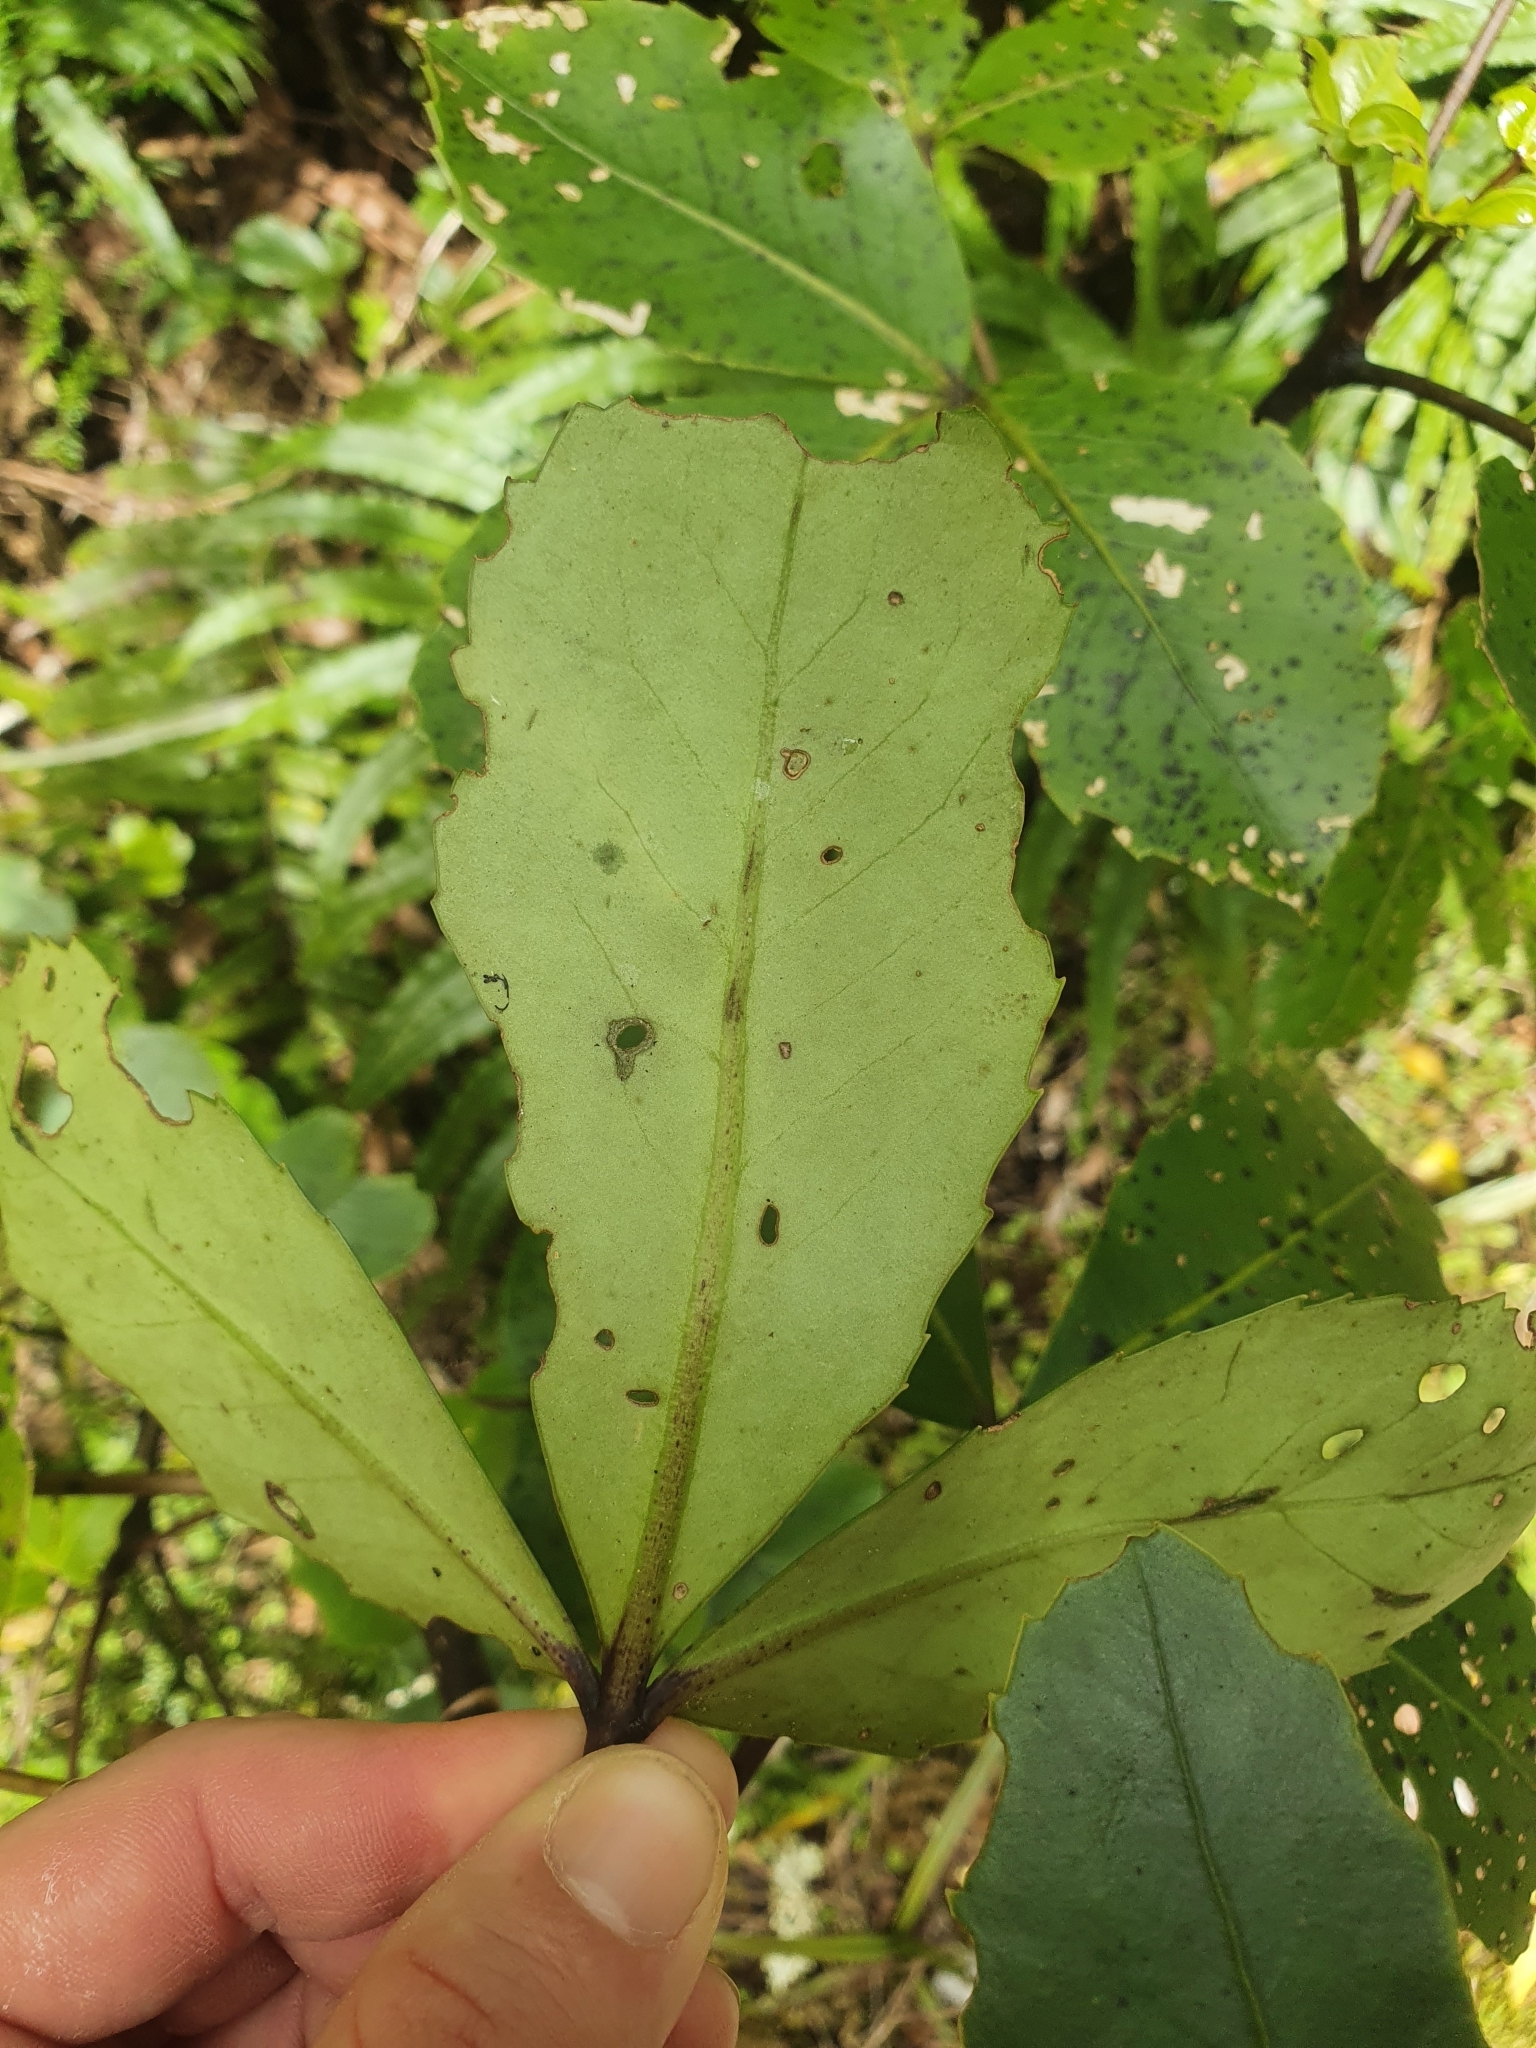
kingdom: Plantae
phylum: Tracheophyta
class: Magnoliopsida
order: Apiales
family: Araliaceae
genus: Neopanax
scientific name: Neopanax colensoi
